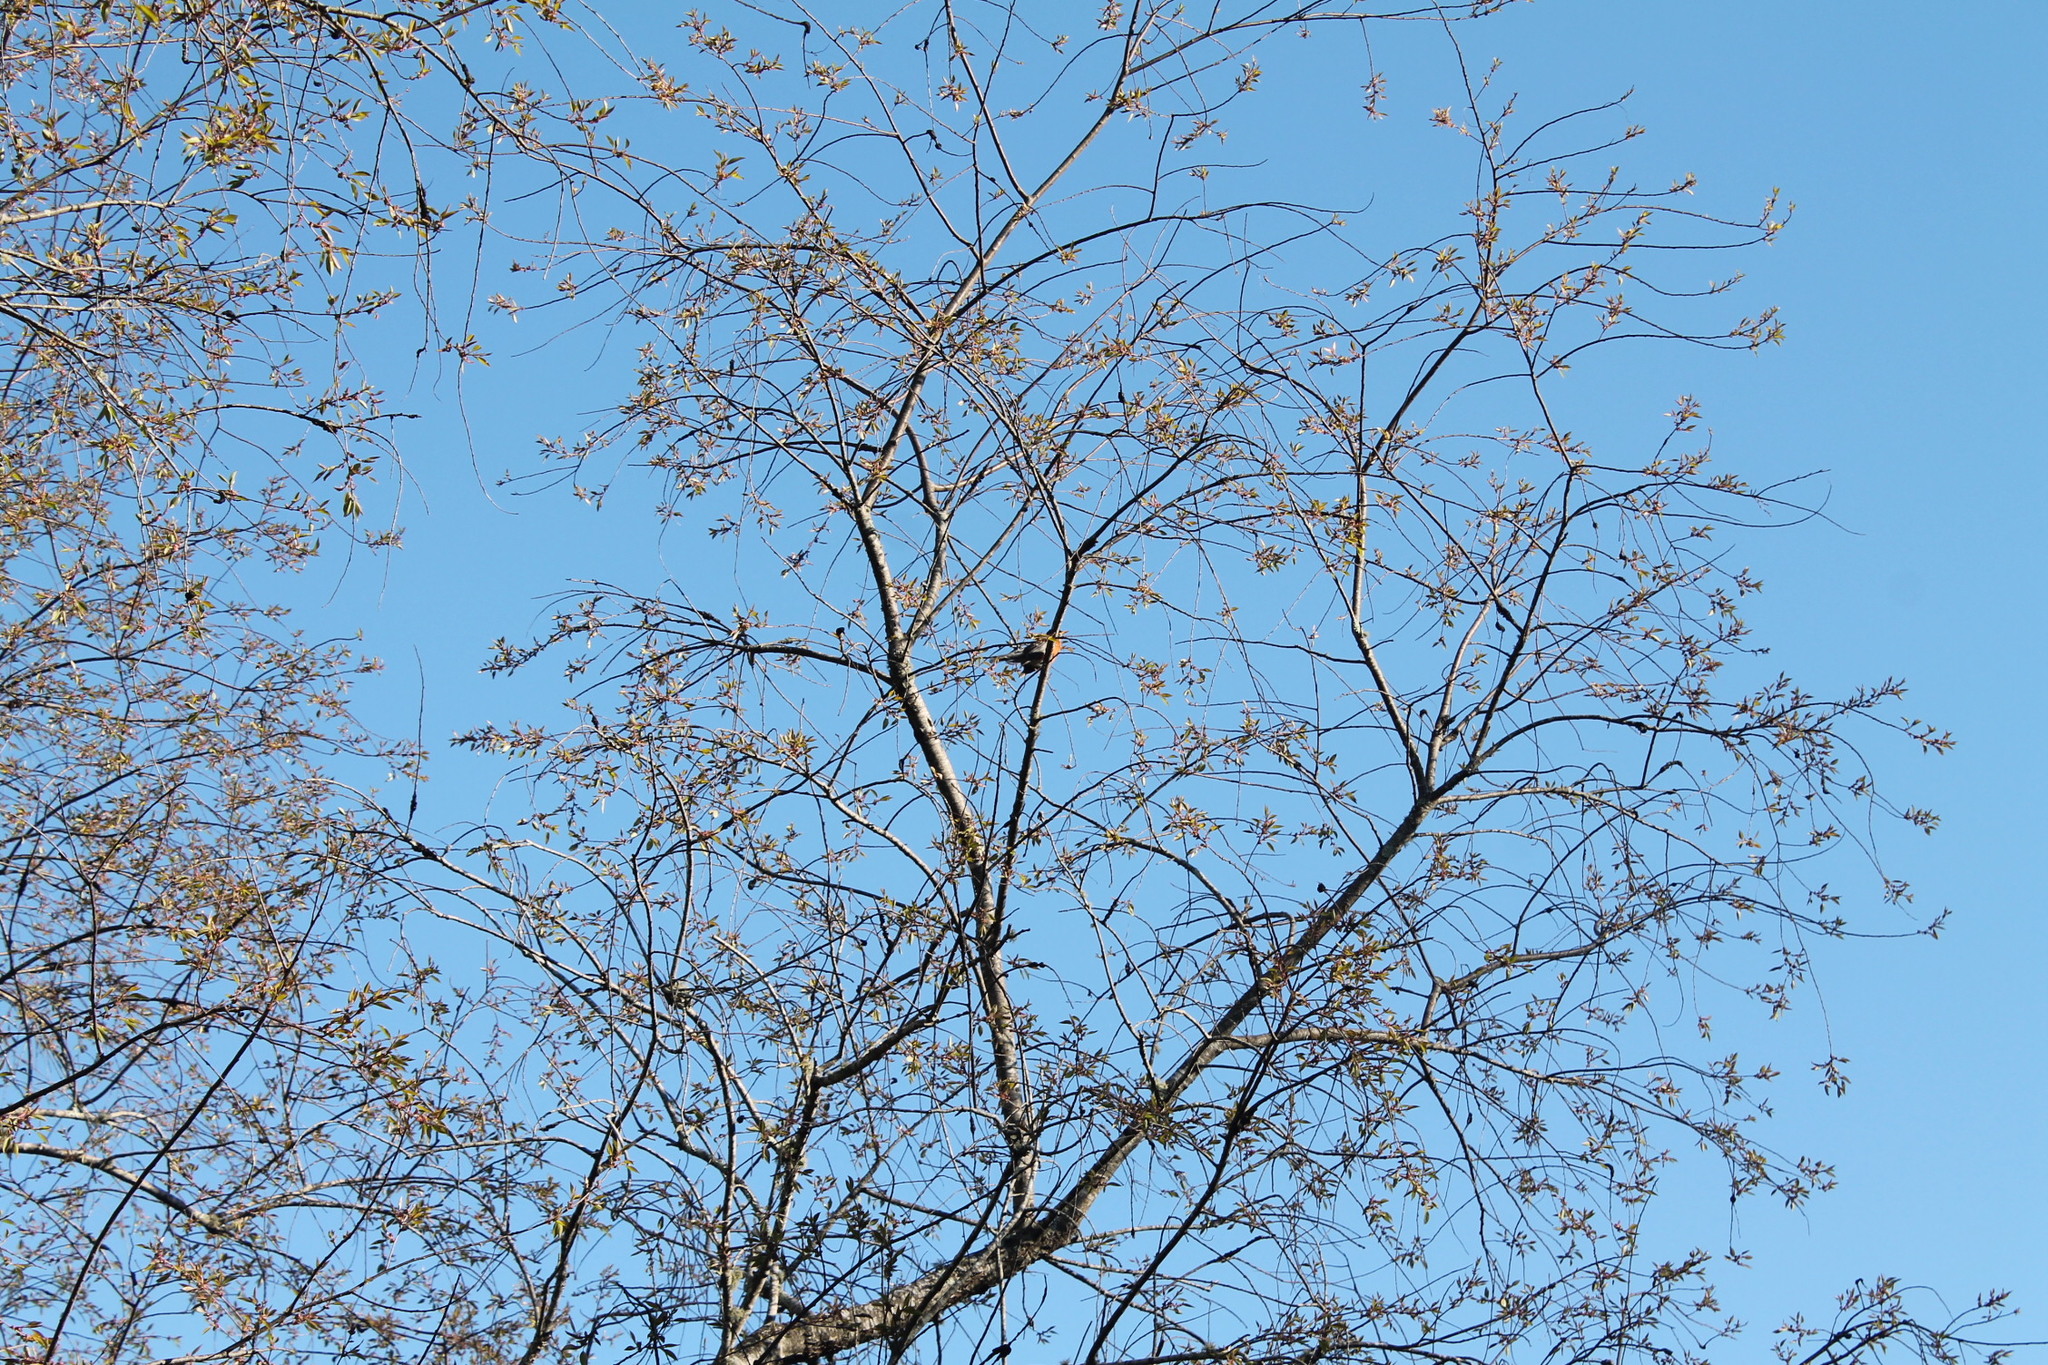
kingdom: Animalia
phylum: Chordata
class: Aves
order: Passeriformes
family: Turdidae
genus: Turdus
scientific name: Turdus migratorius
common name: American robin
